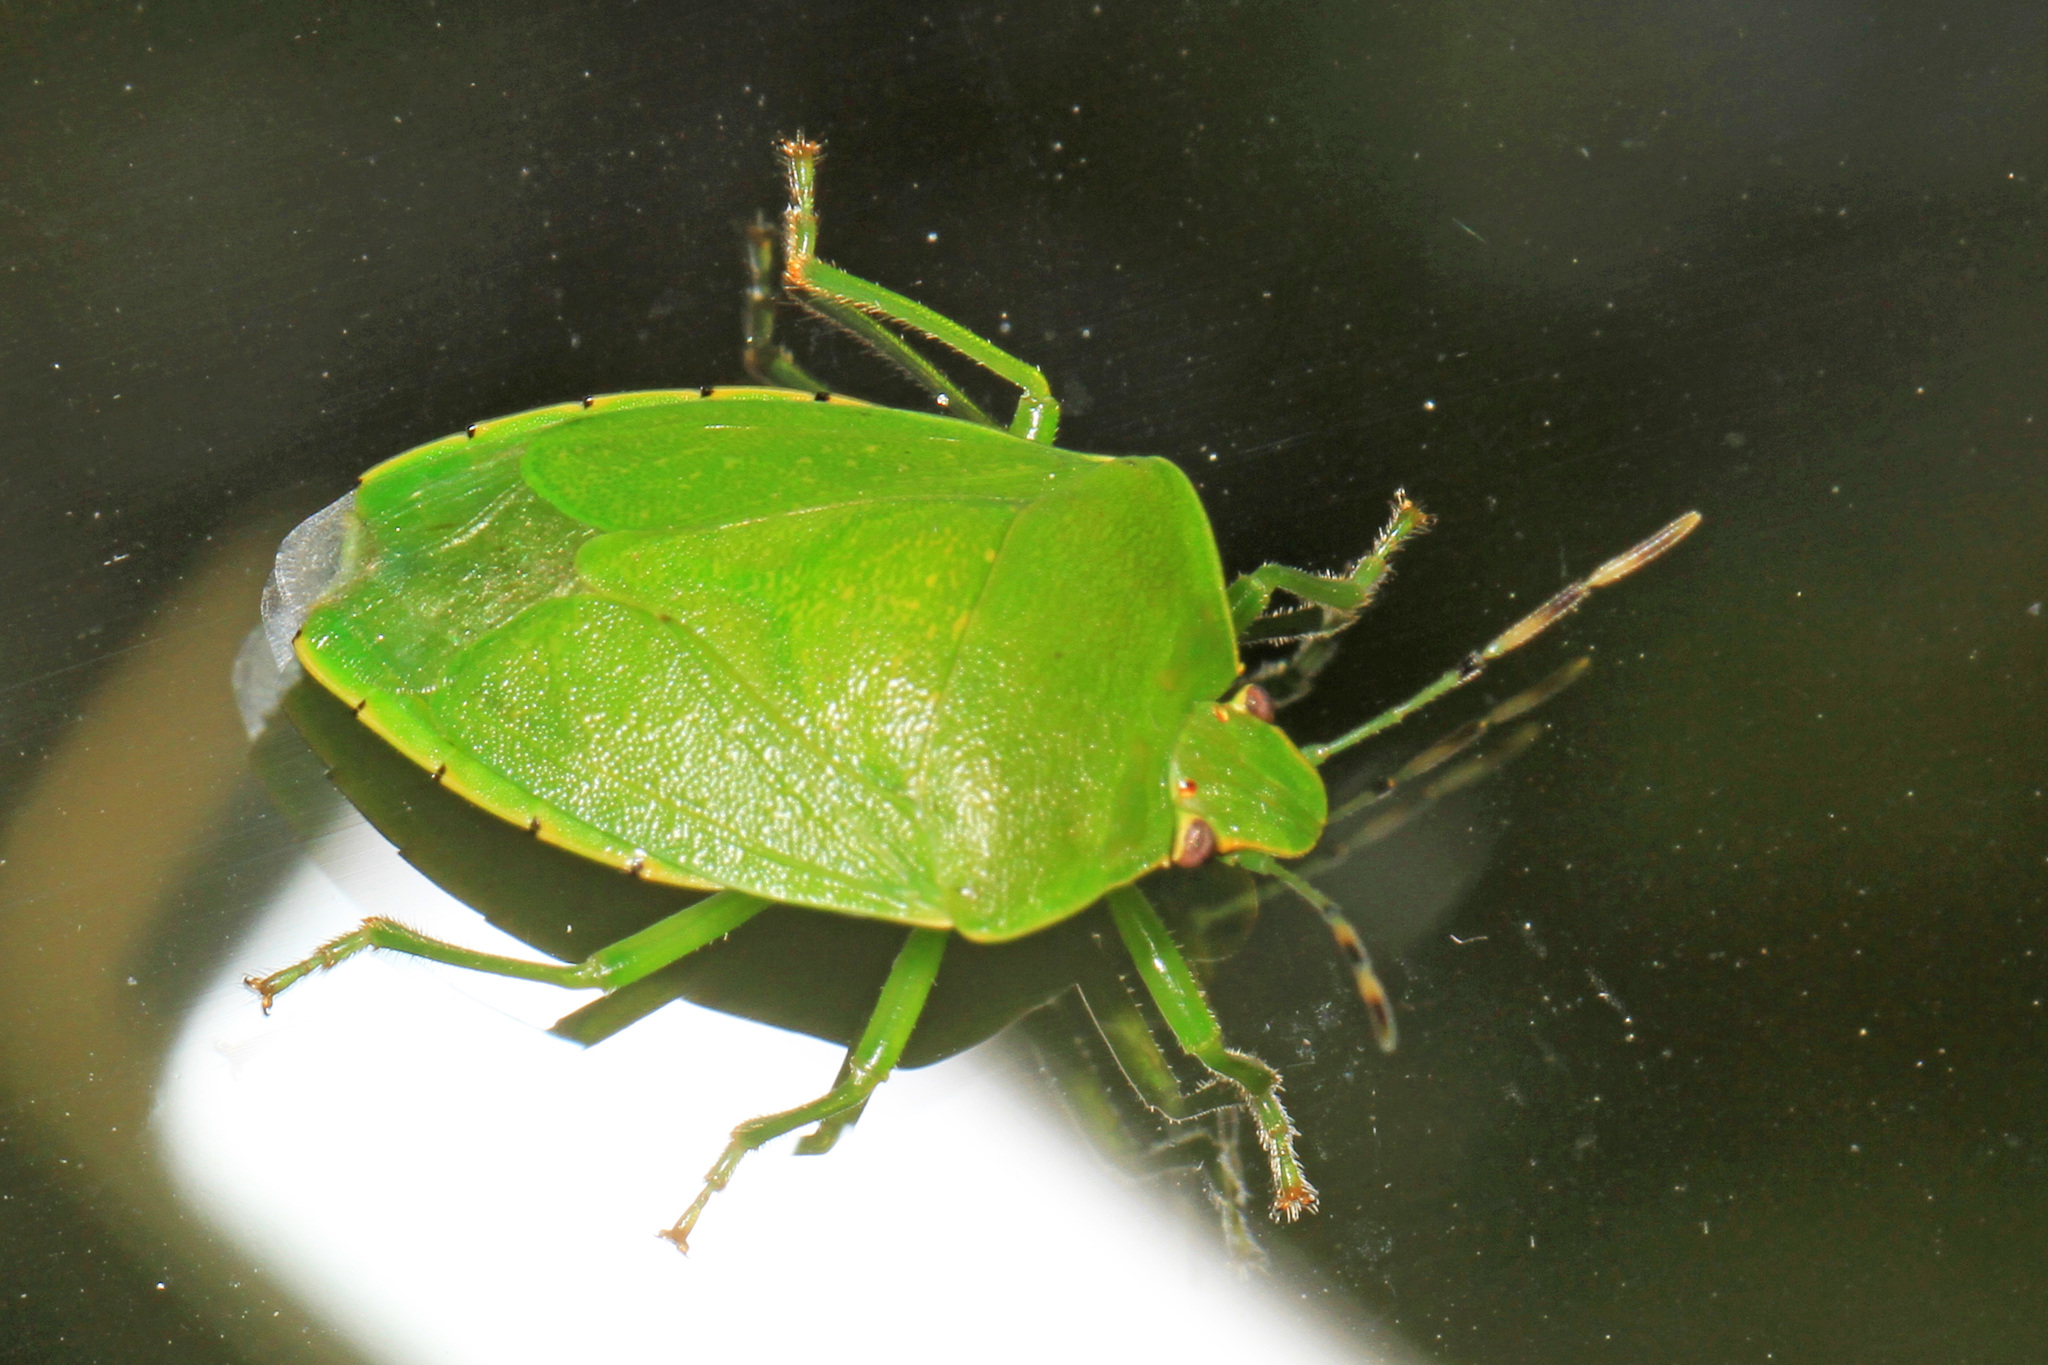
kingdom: Animalia
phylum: Arthropoda
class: Insecta
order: Hemiptera
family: Pentatomidae
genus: Chinavia
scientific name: Chinavia hilaris
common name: Green stink bug
